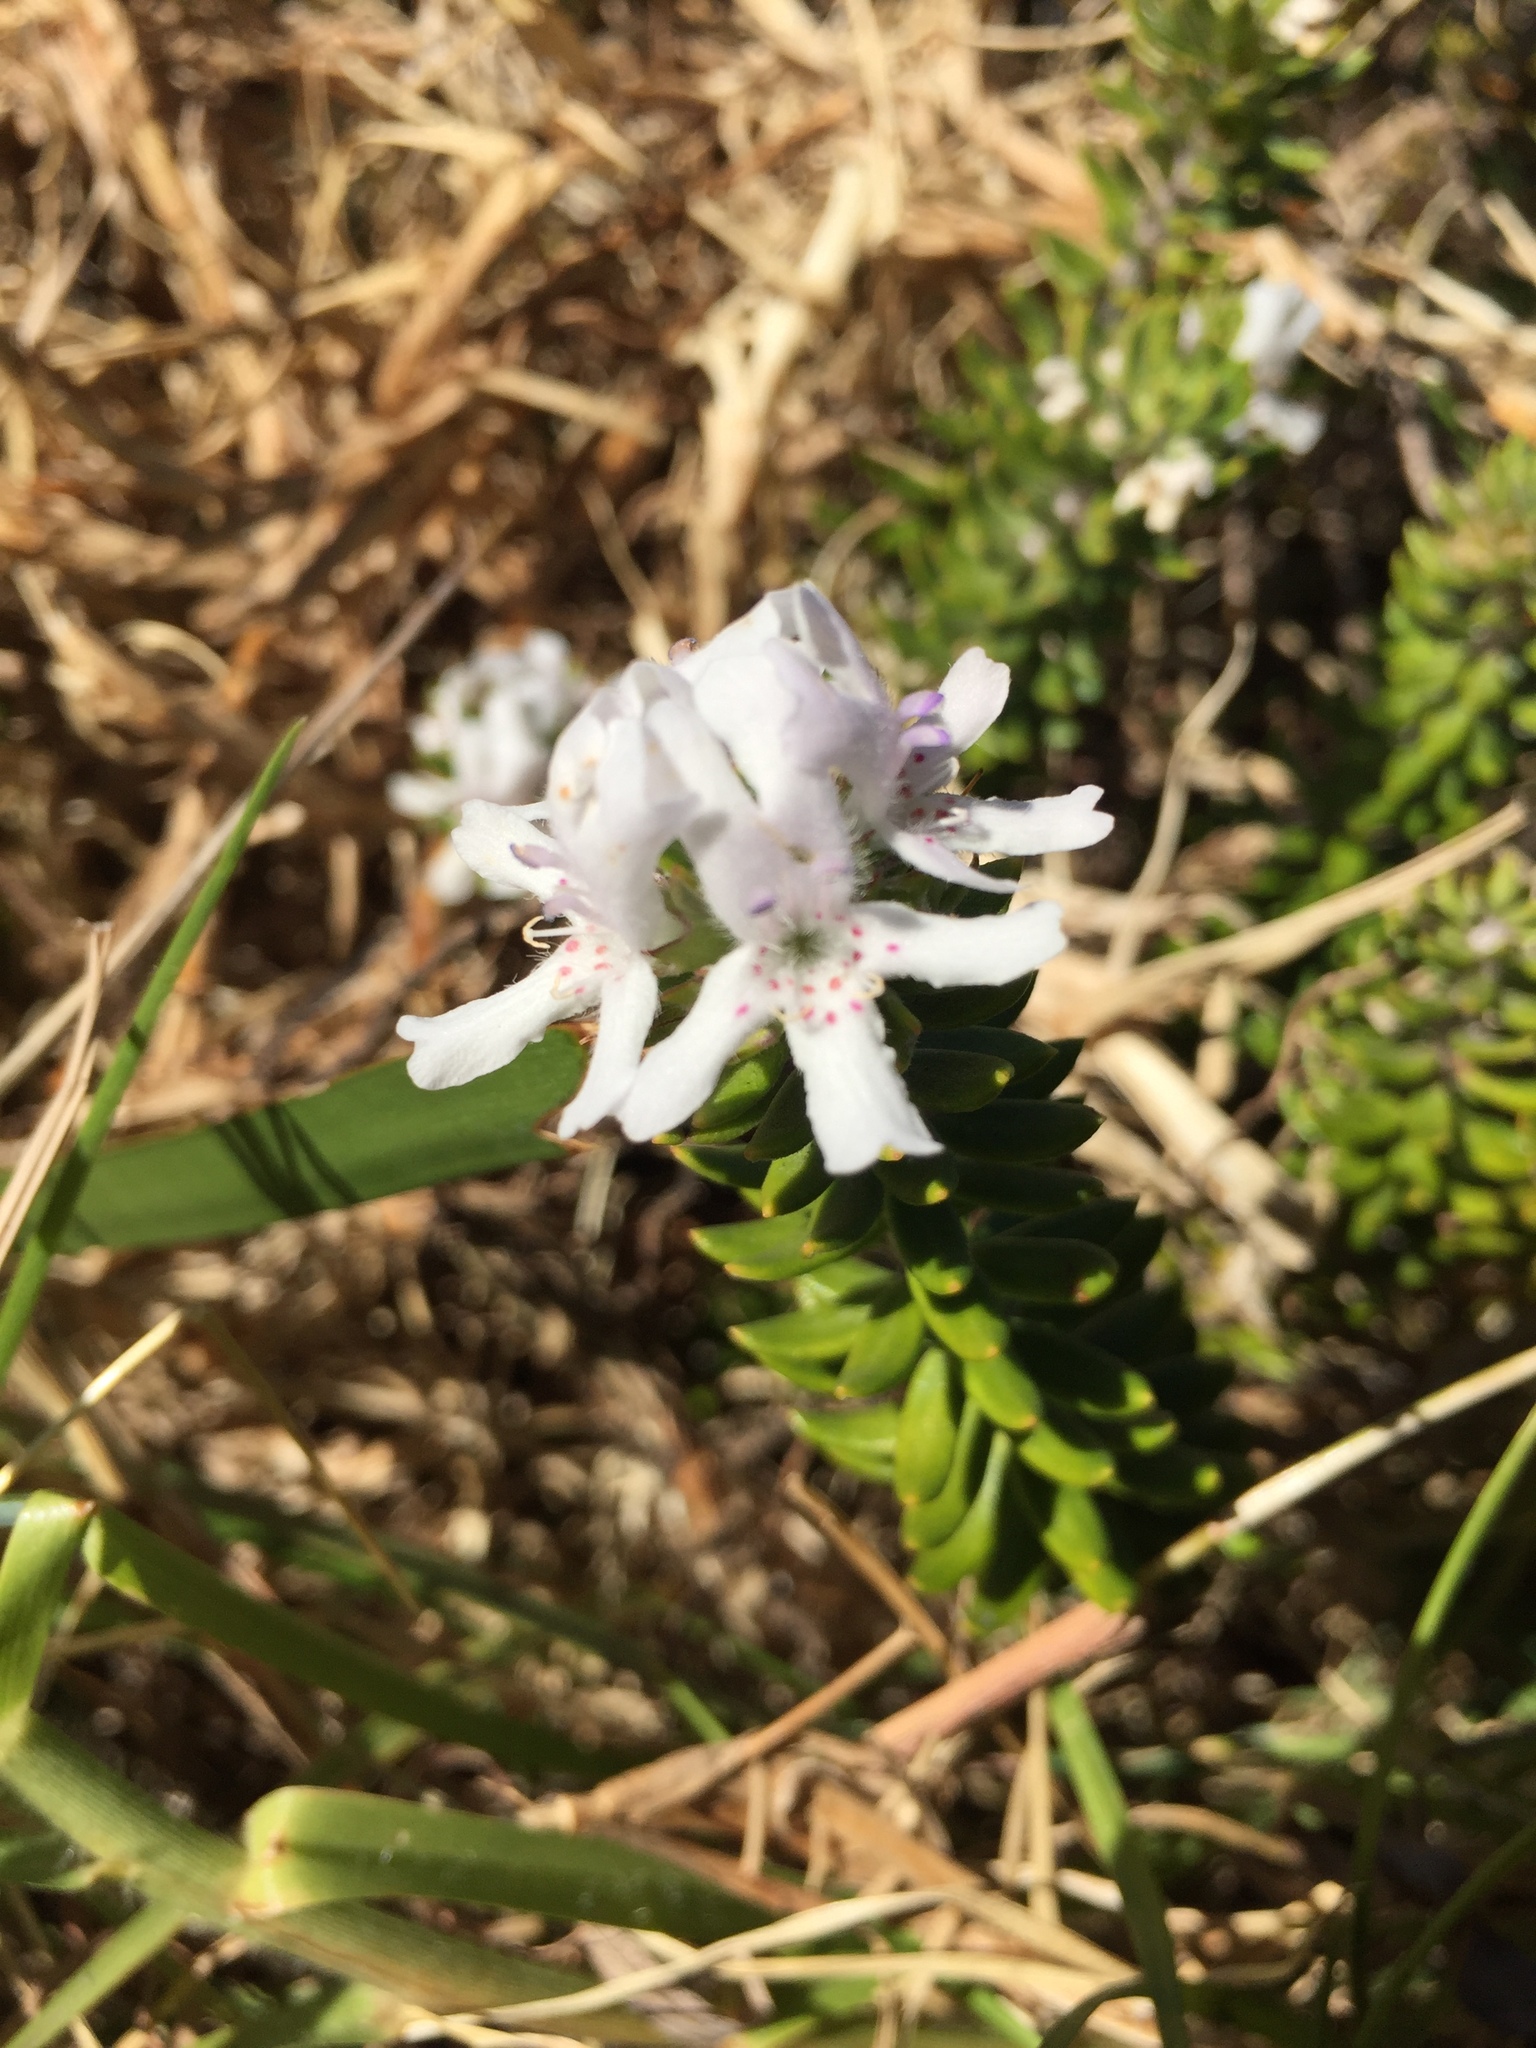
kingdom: Plantae
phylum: Tracheophyta
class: Magnoliopsida
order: Lamiales
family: Lamiaceae
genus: Westringia
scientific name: Westringia fruticosa
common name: Coastal-rosemary
